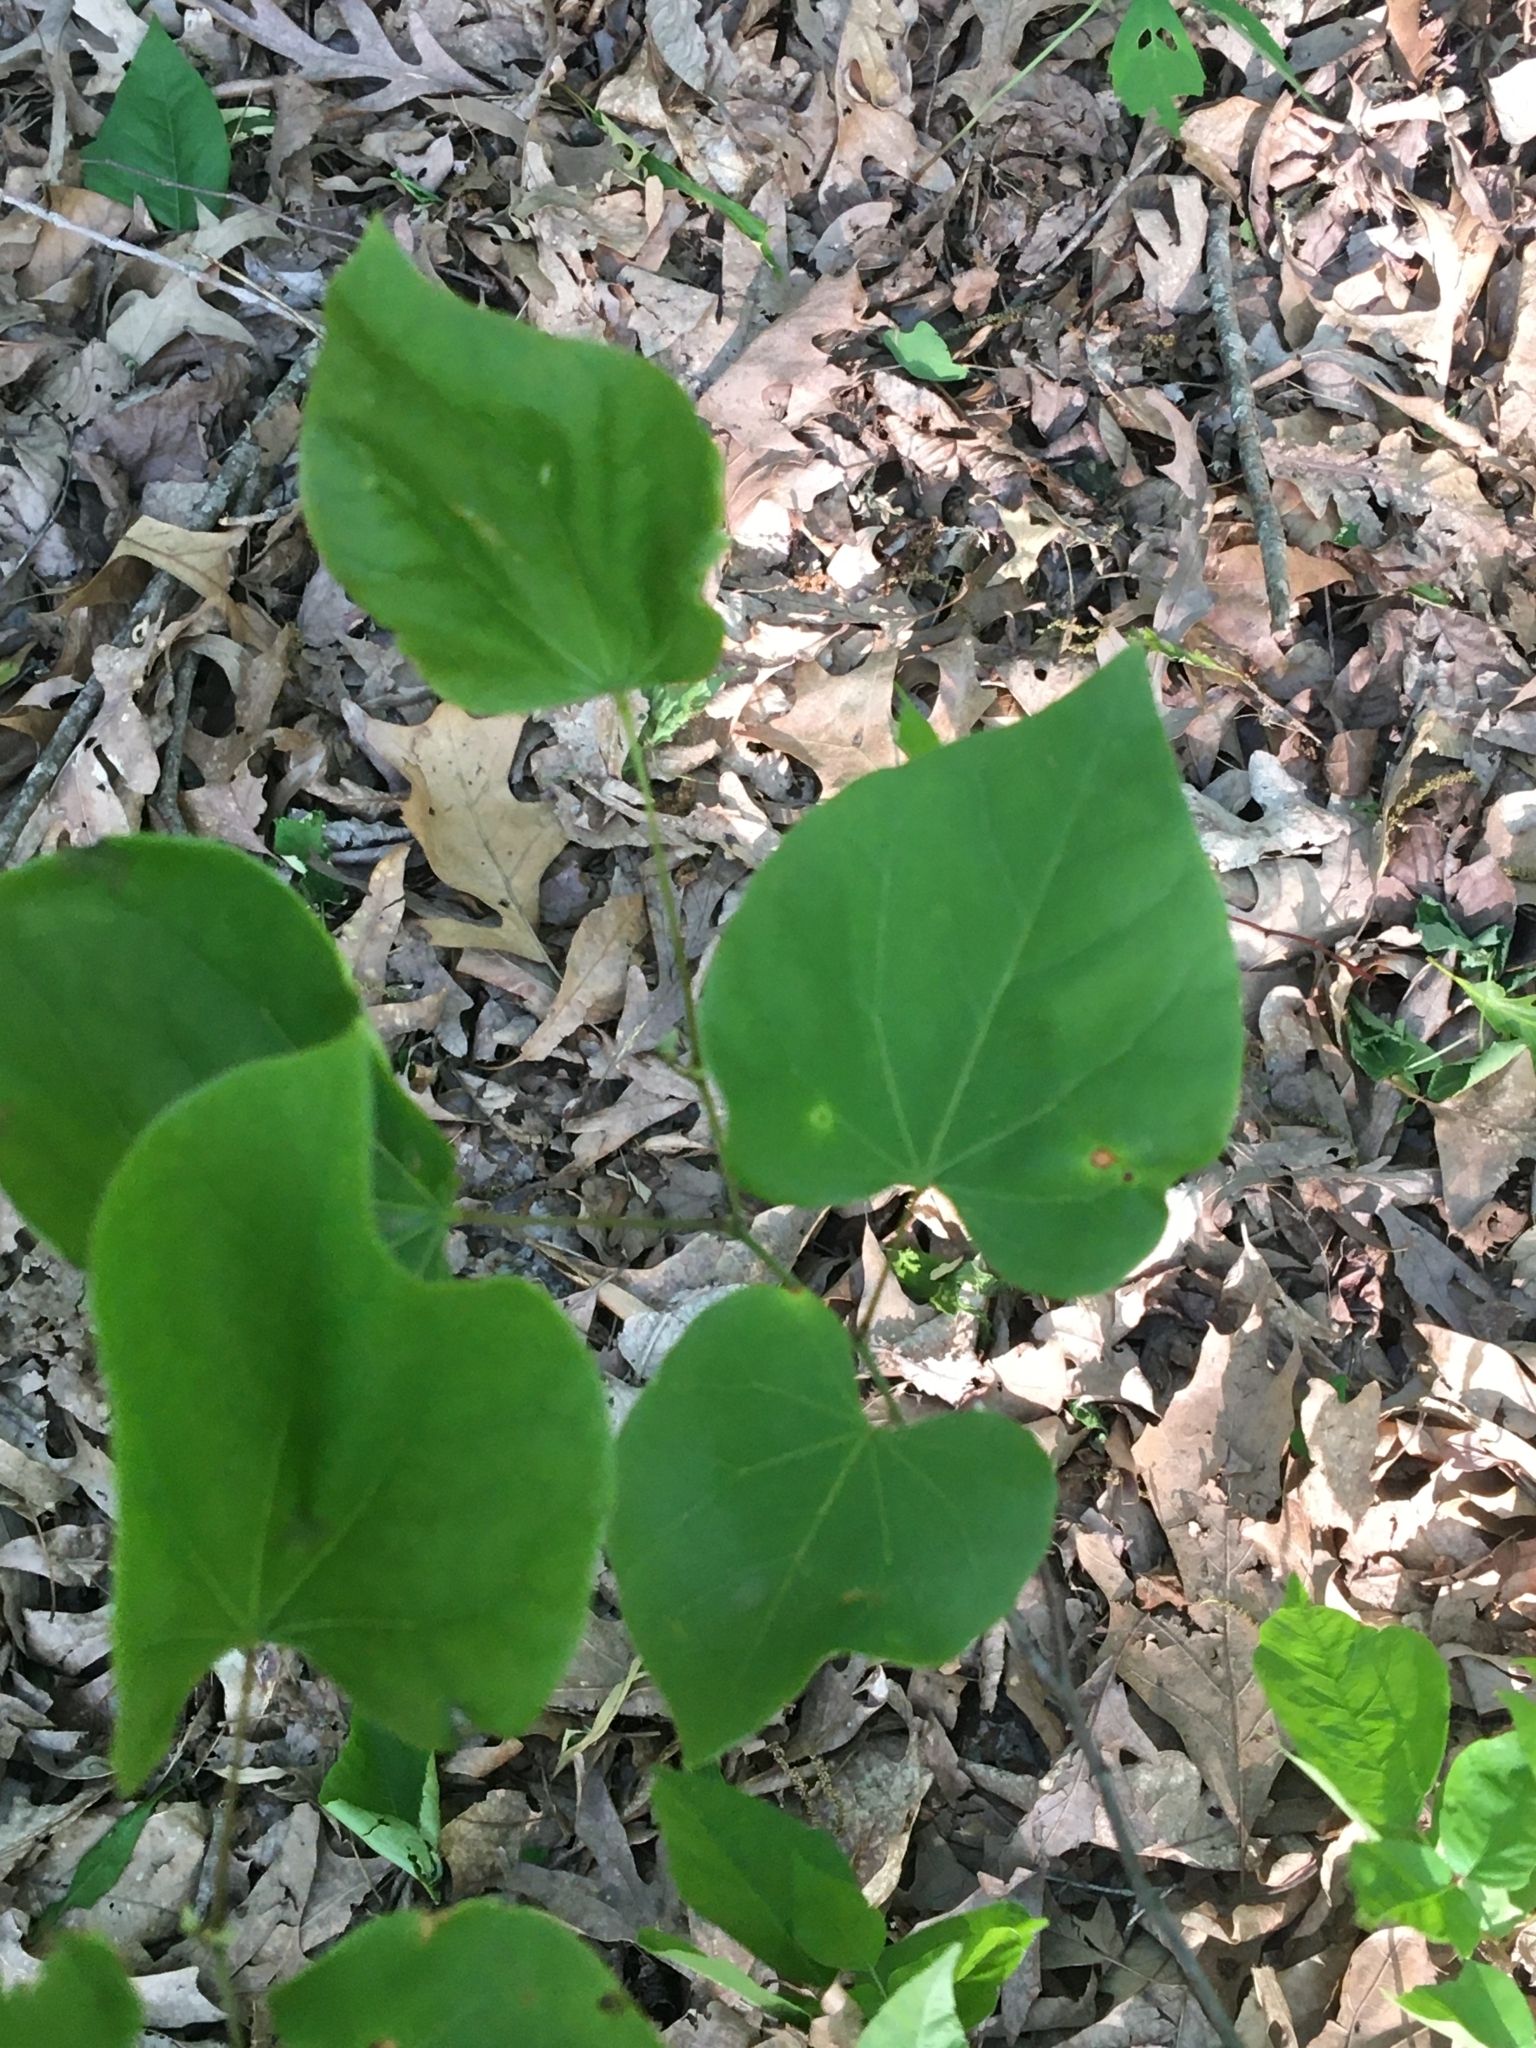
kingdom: Plantae
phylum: Tracheophyta
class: Magnoliopsida
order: Fabales
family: Fabaceae
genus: Cercis
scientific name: Cercis canadensis
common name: Eastern redbud
